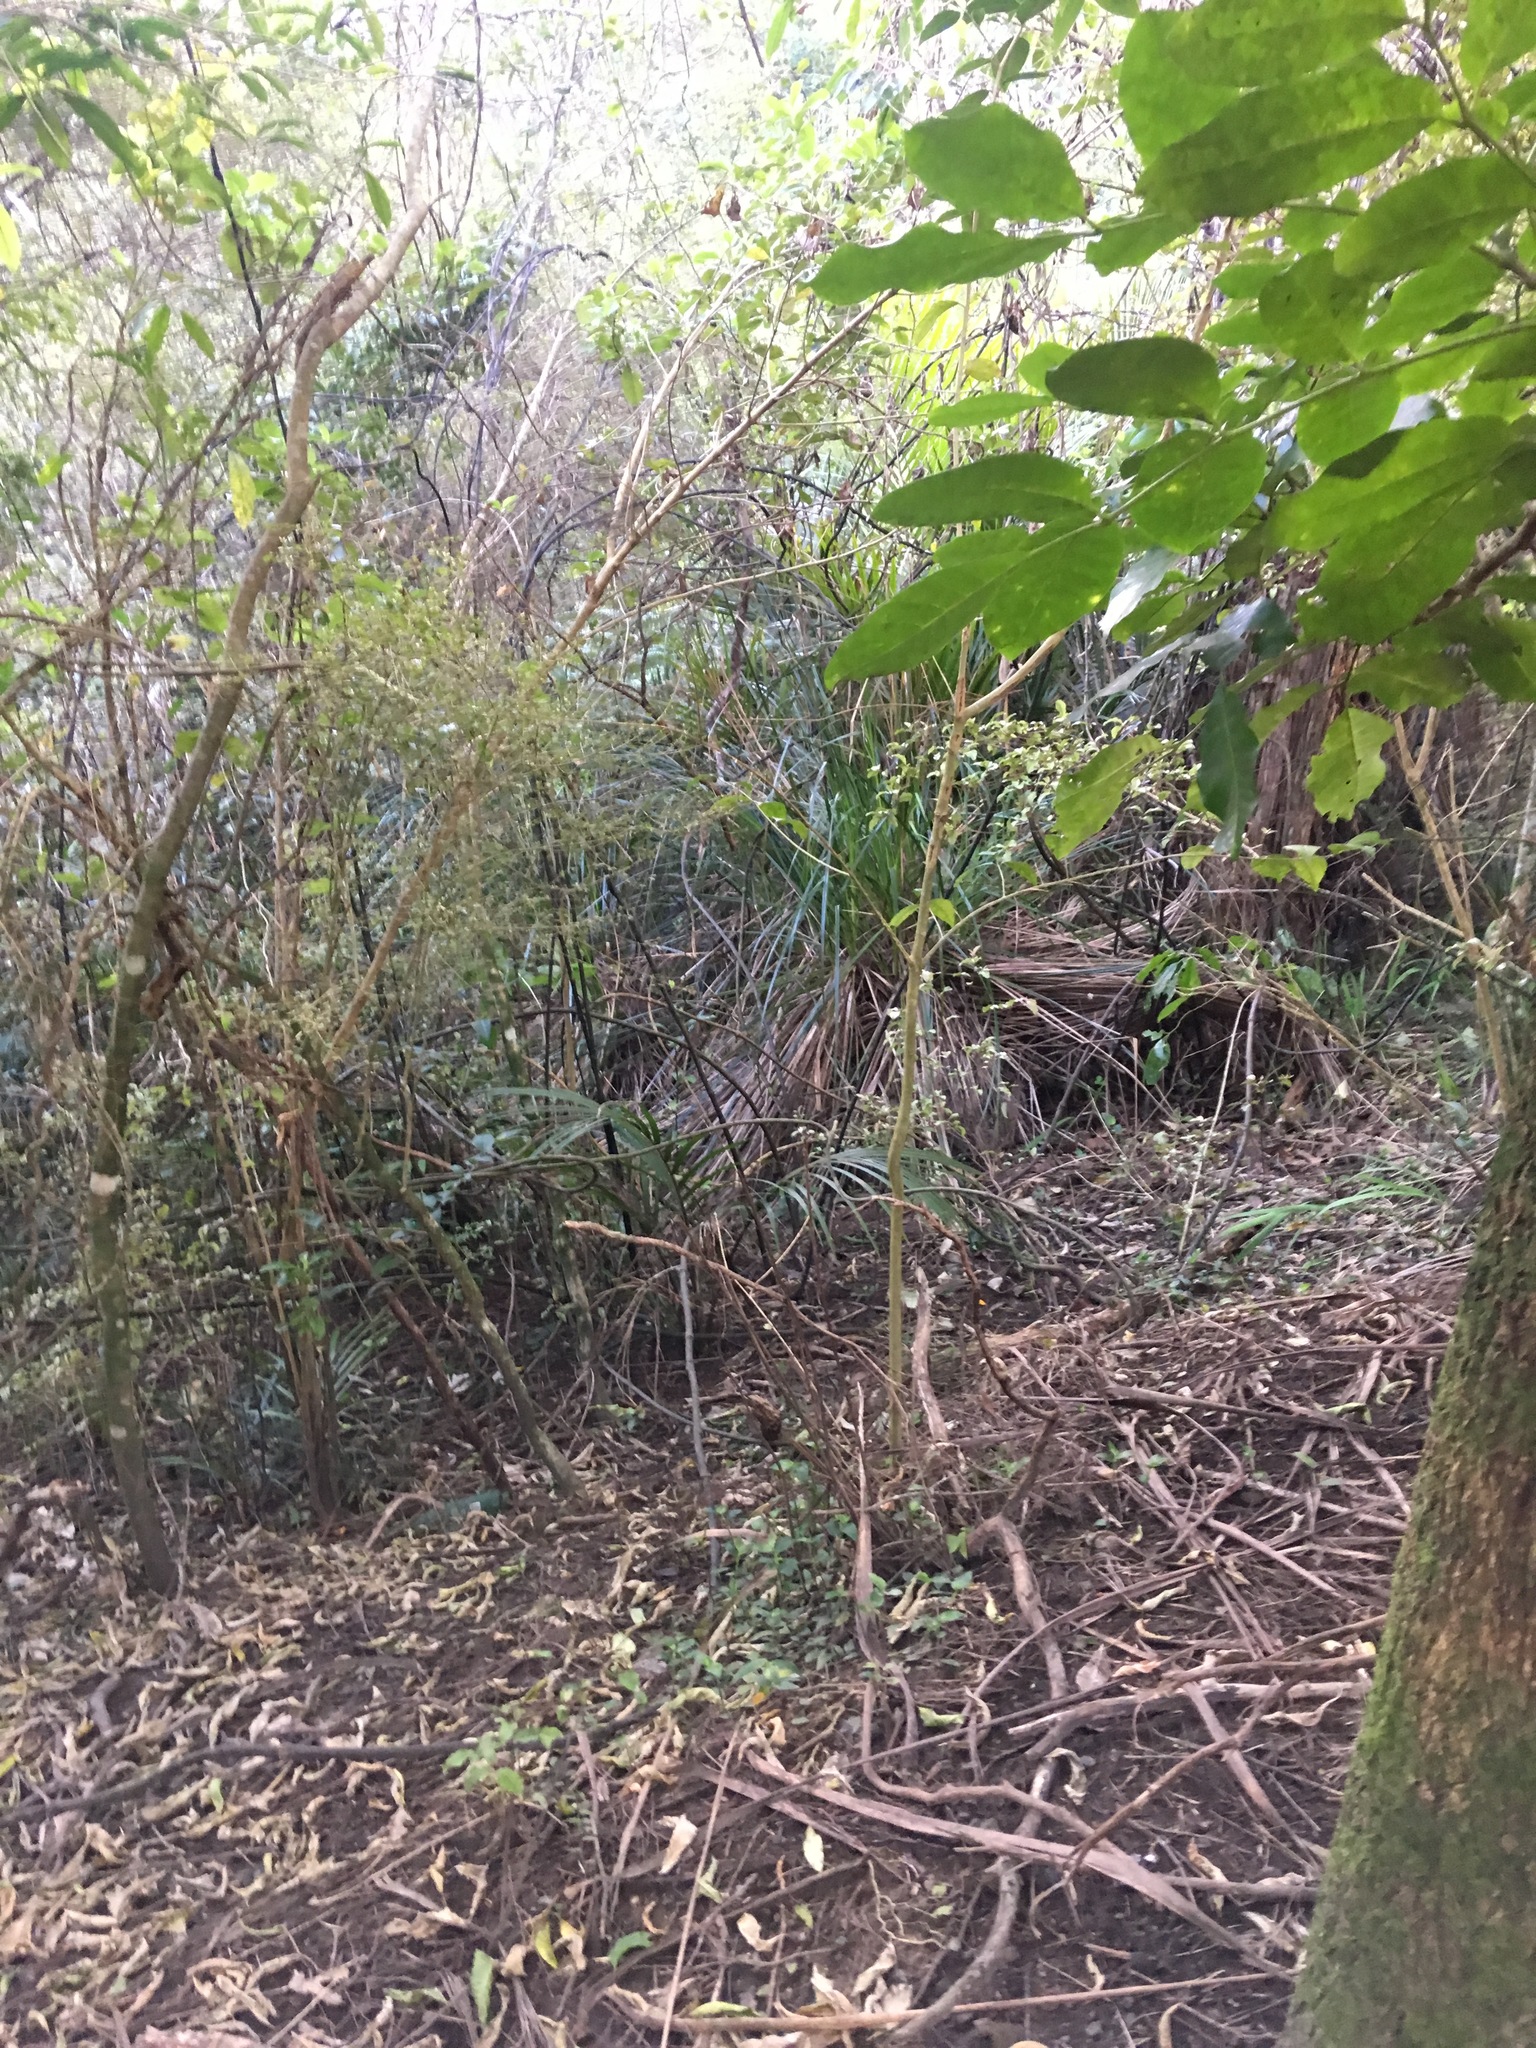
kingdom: Plantae
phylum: Tracheophyta
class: Magnoliopsida
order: Sapindales
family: Meliaceae
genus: Didymocheton
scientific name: Didymocheton spectabilis
